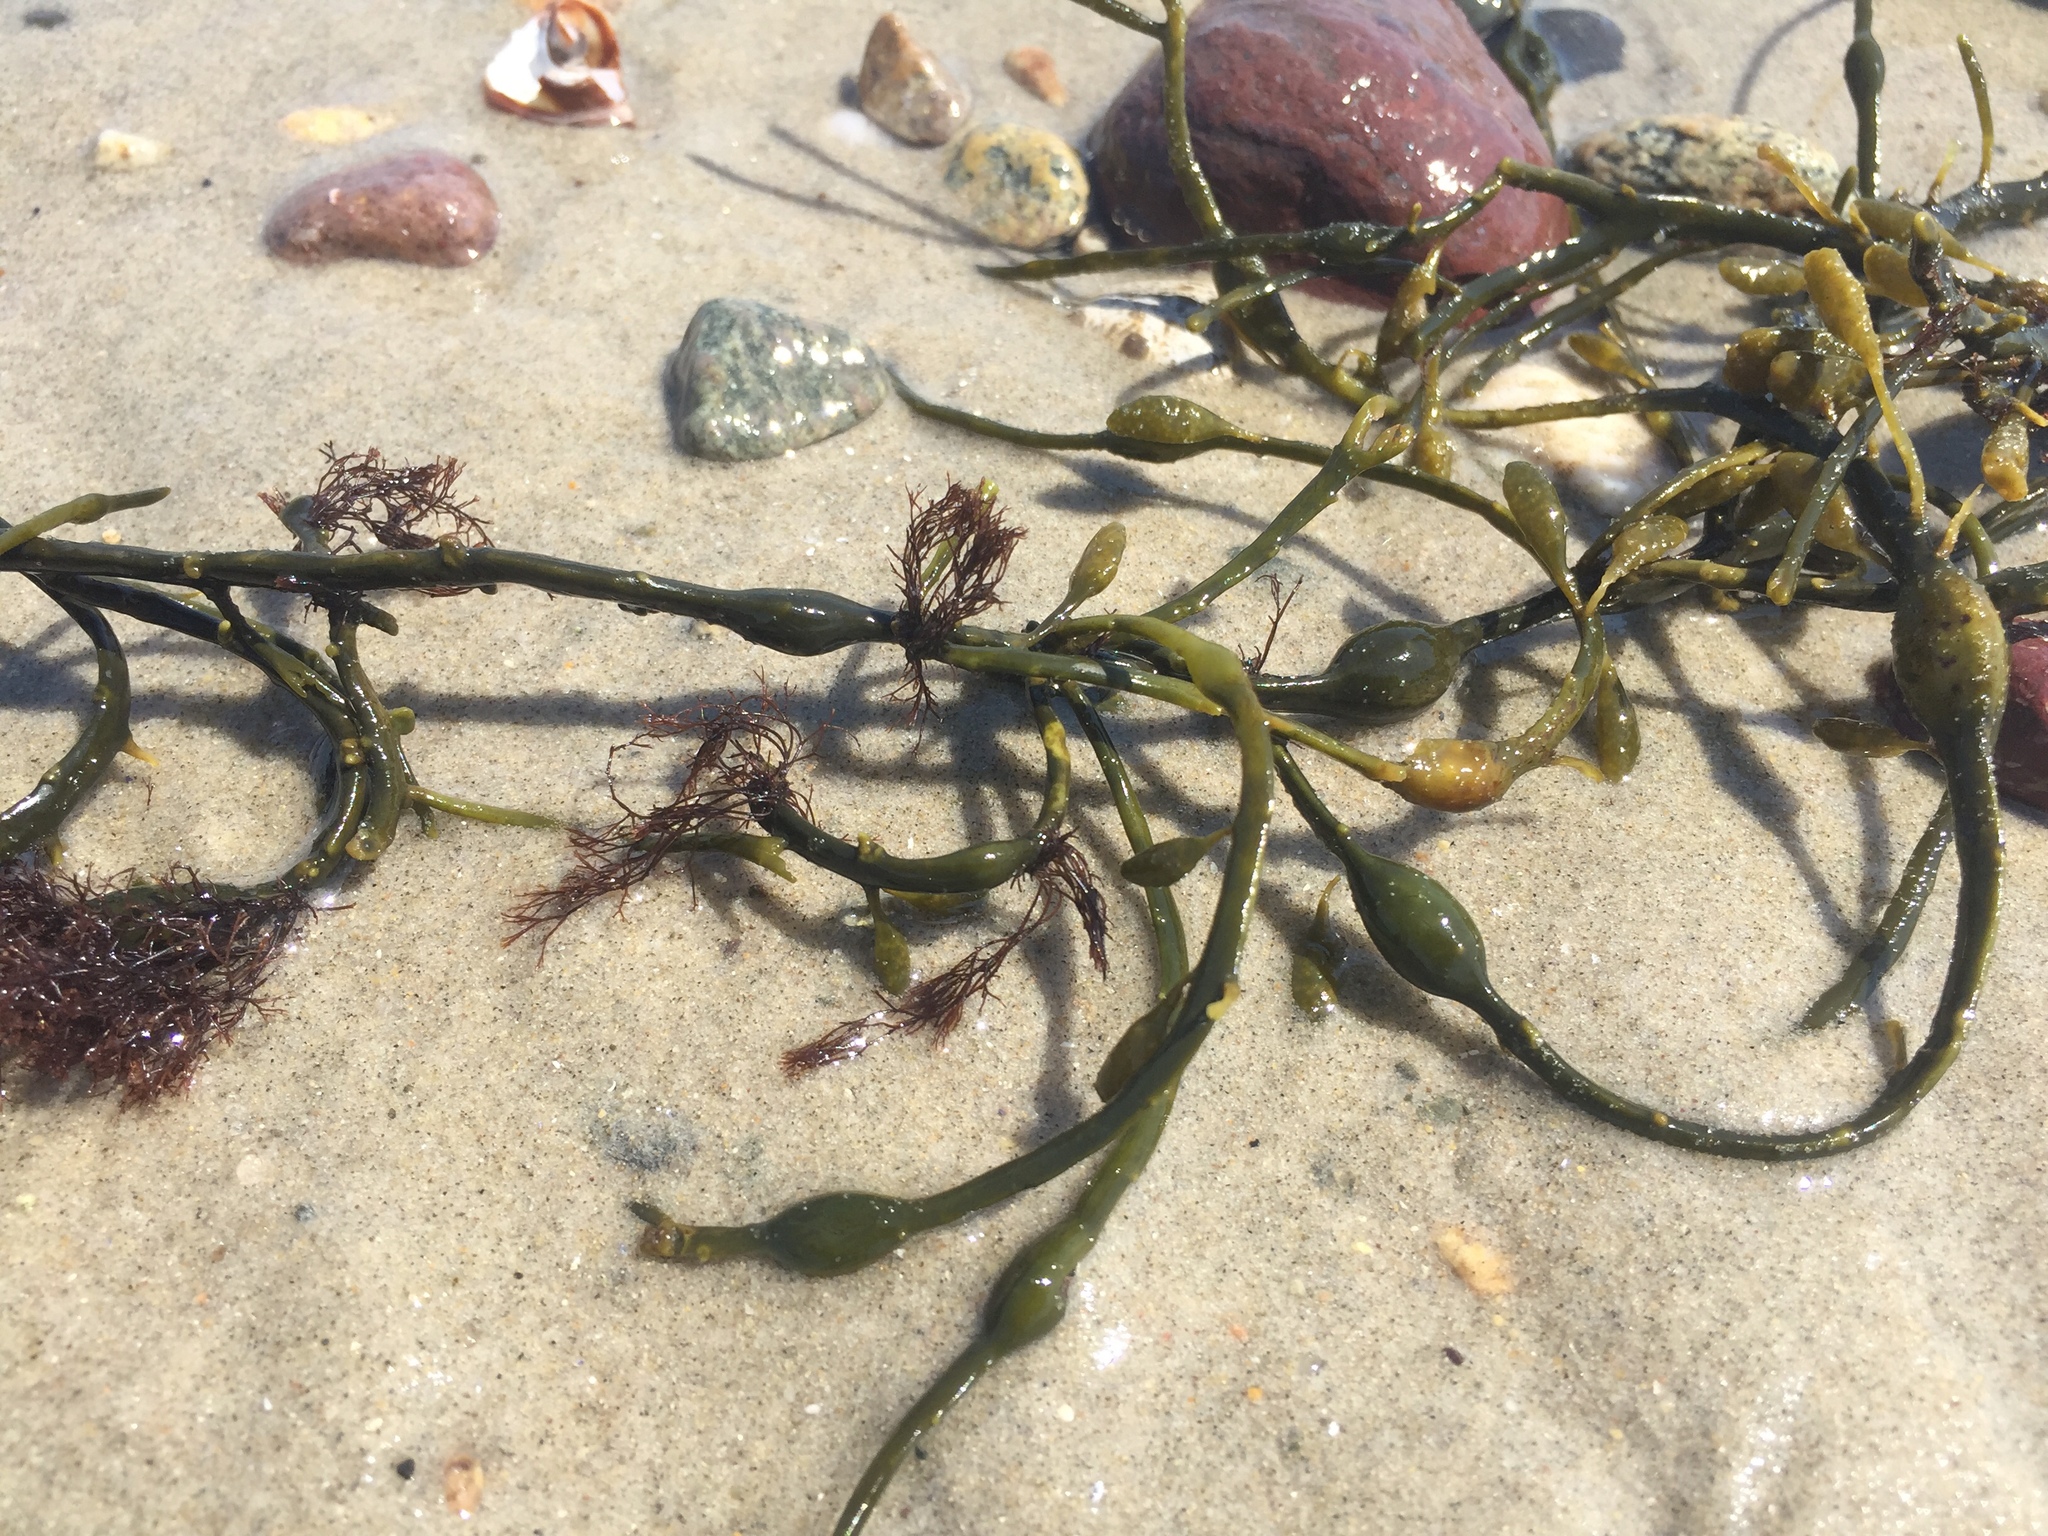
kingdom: Chromista
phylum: Ochrophyta
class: Phaeophyceae
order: Fucales
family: Fucaceae
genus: Ascophyllum
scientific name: Ascophyllum nodosum
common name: Knotted wrack
